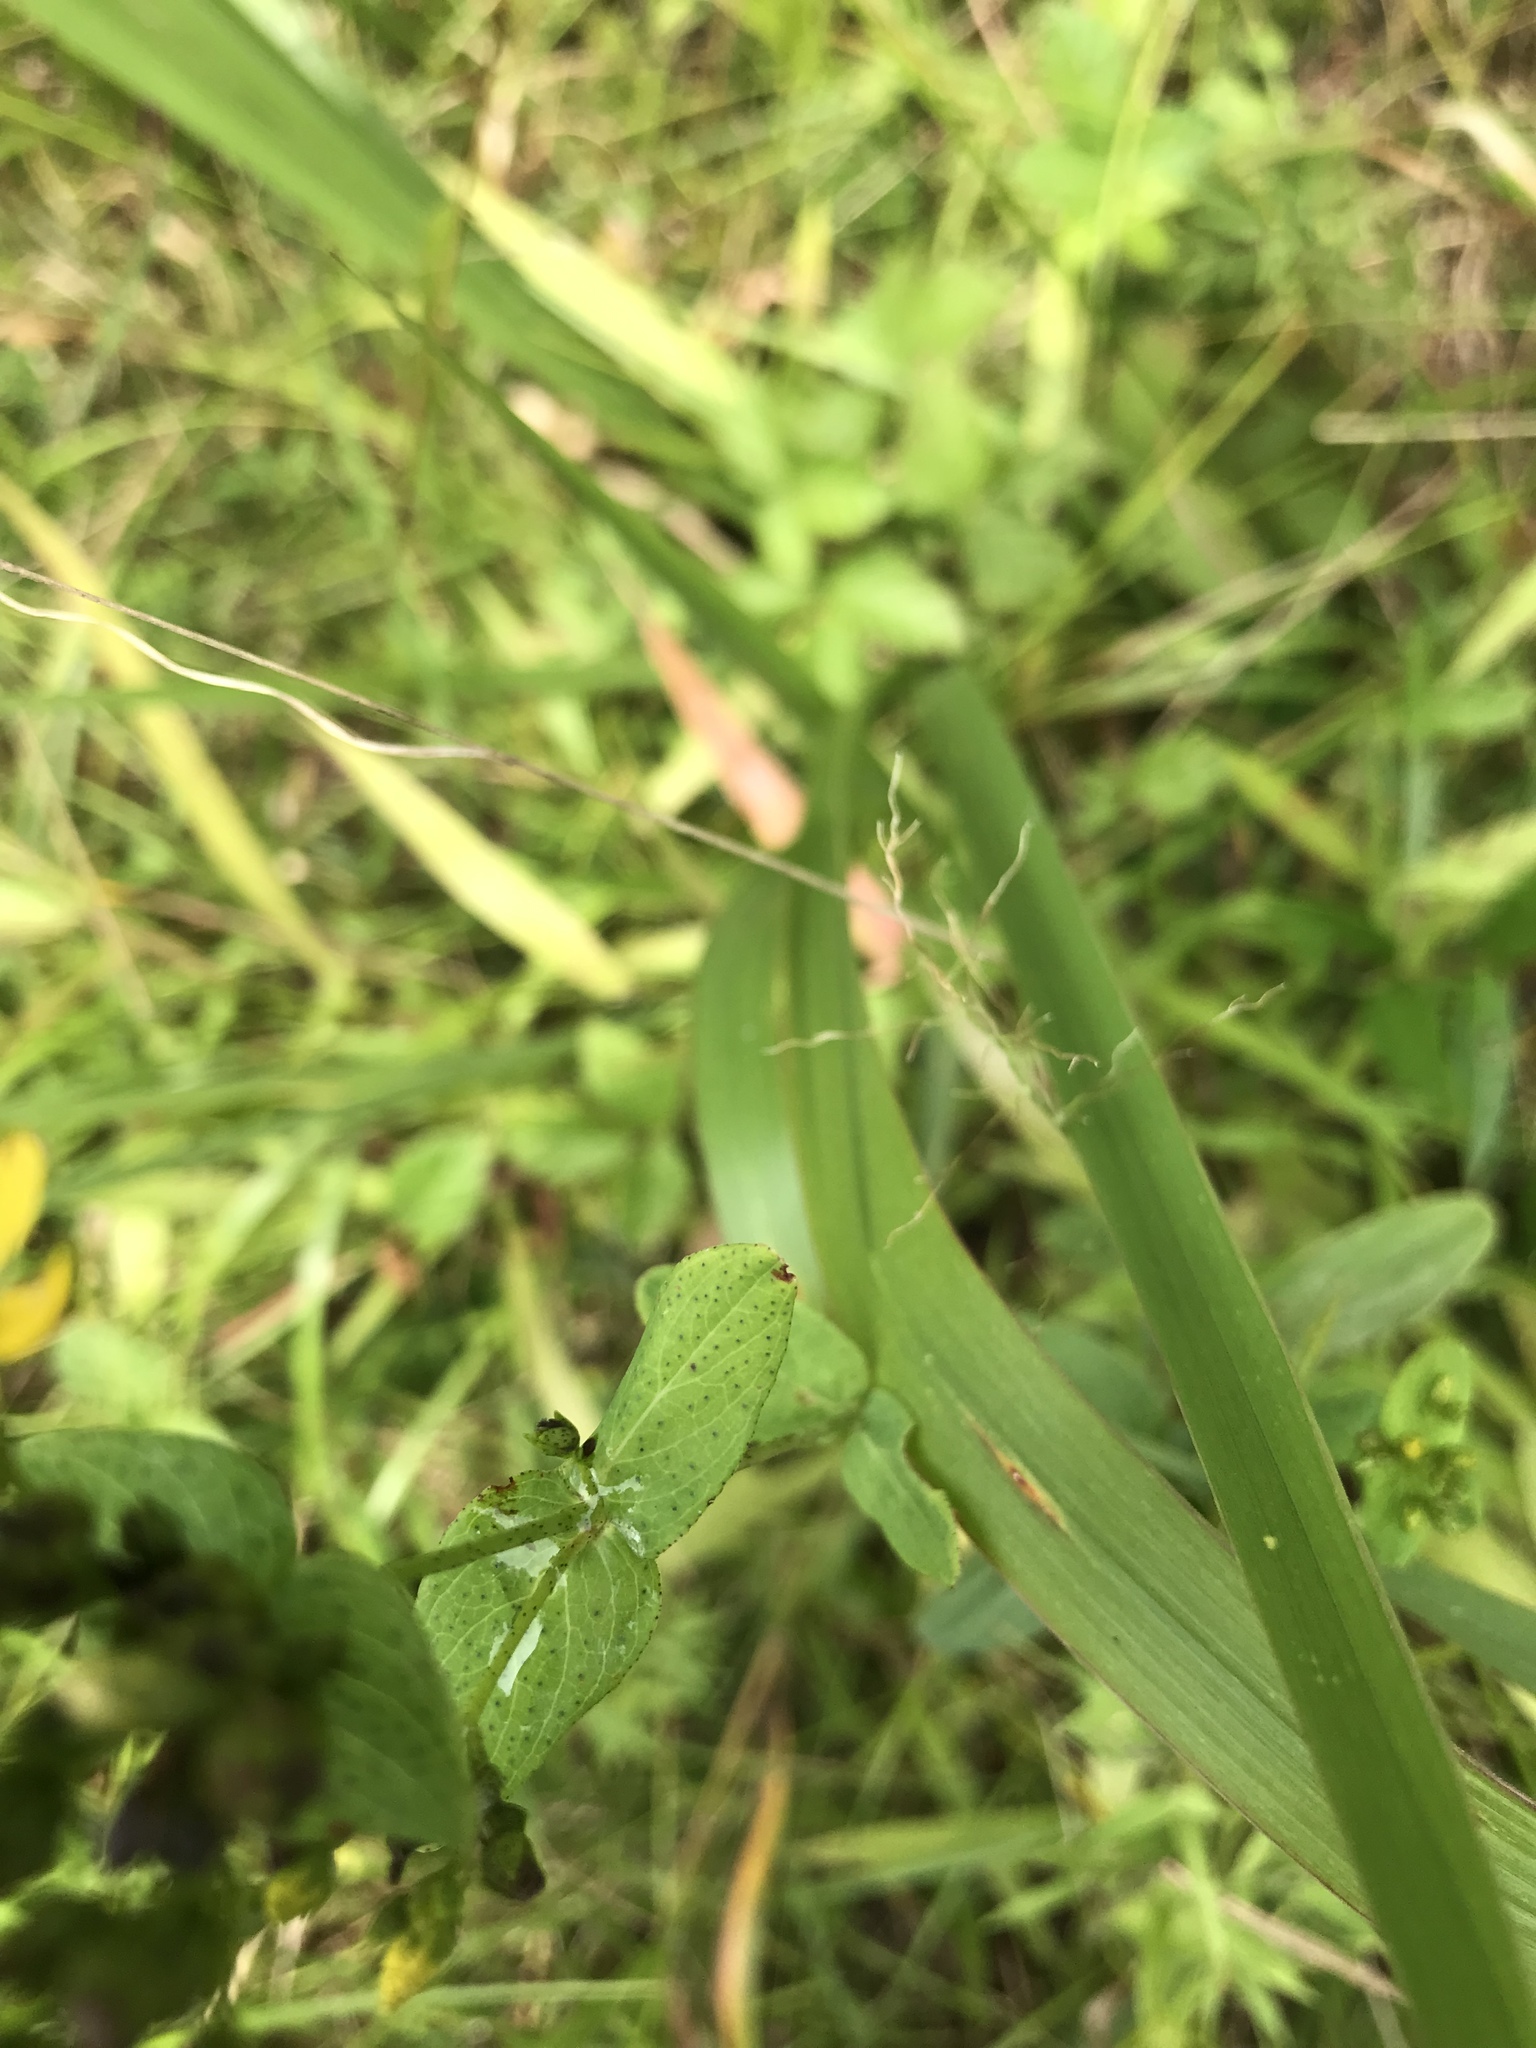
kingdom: Plantae
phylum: Tracheophyta
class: Magnoliopsida
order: Malpighiales
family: Hypericaceae
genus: Hypericum
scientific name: Hypericum punctatum
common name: Spotted st. john's-wort
